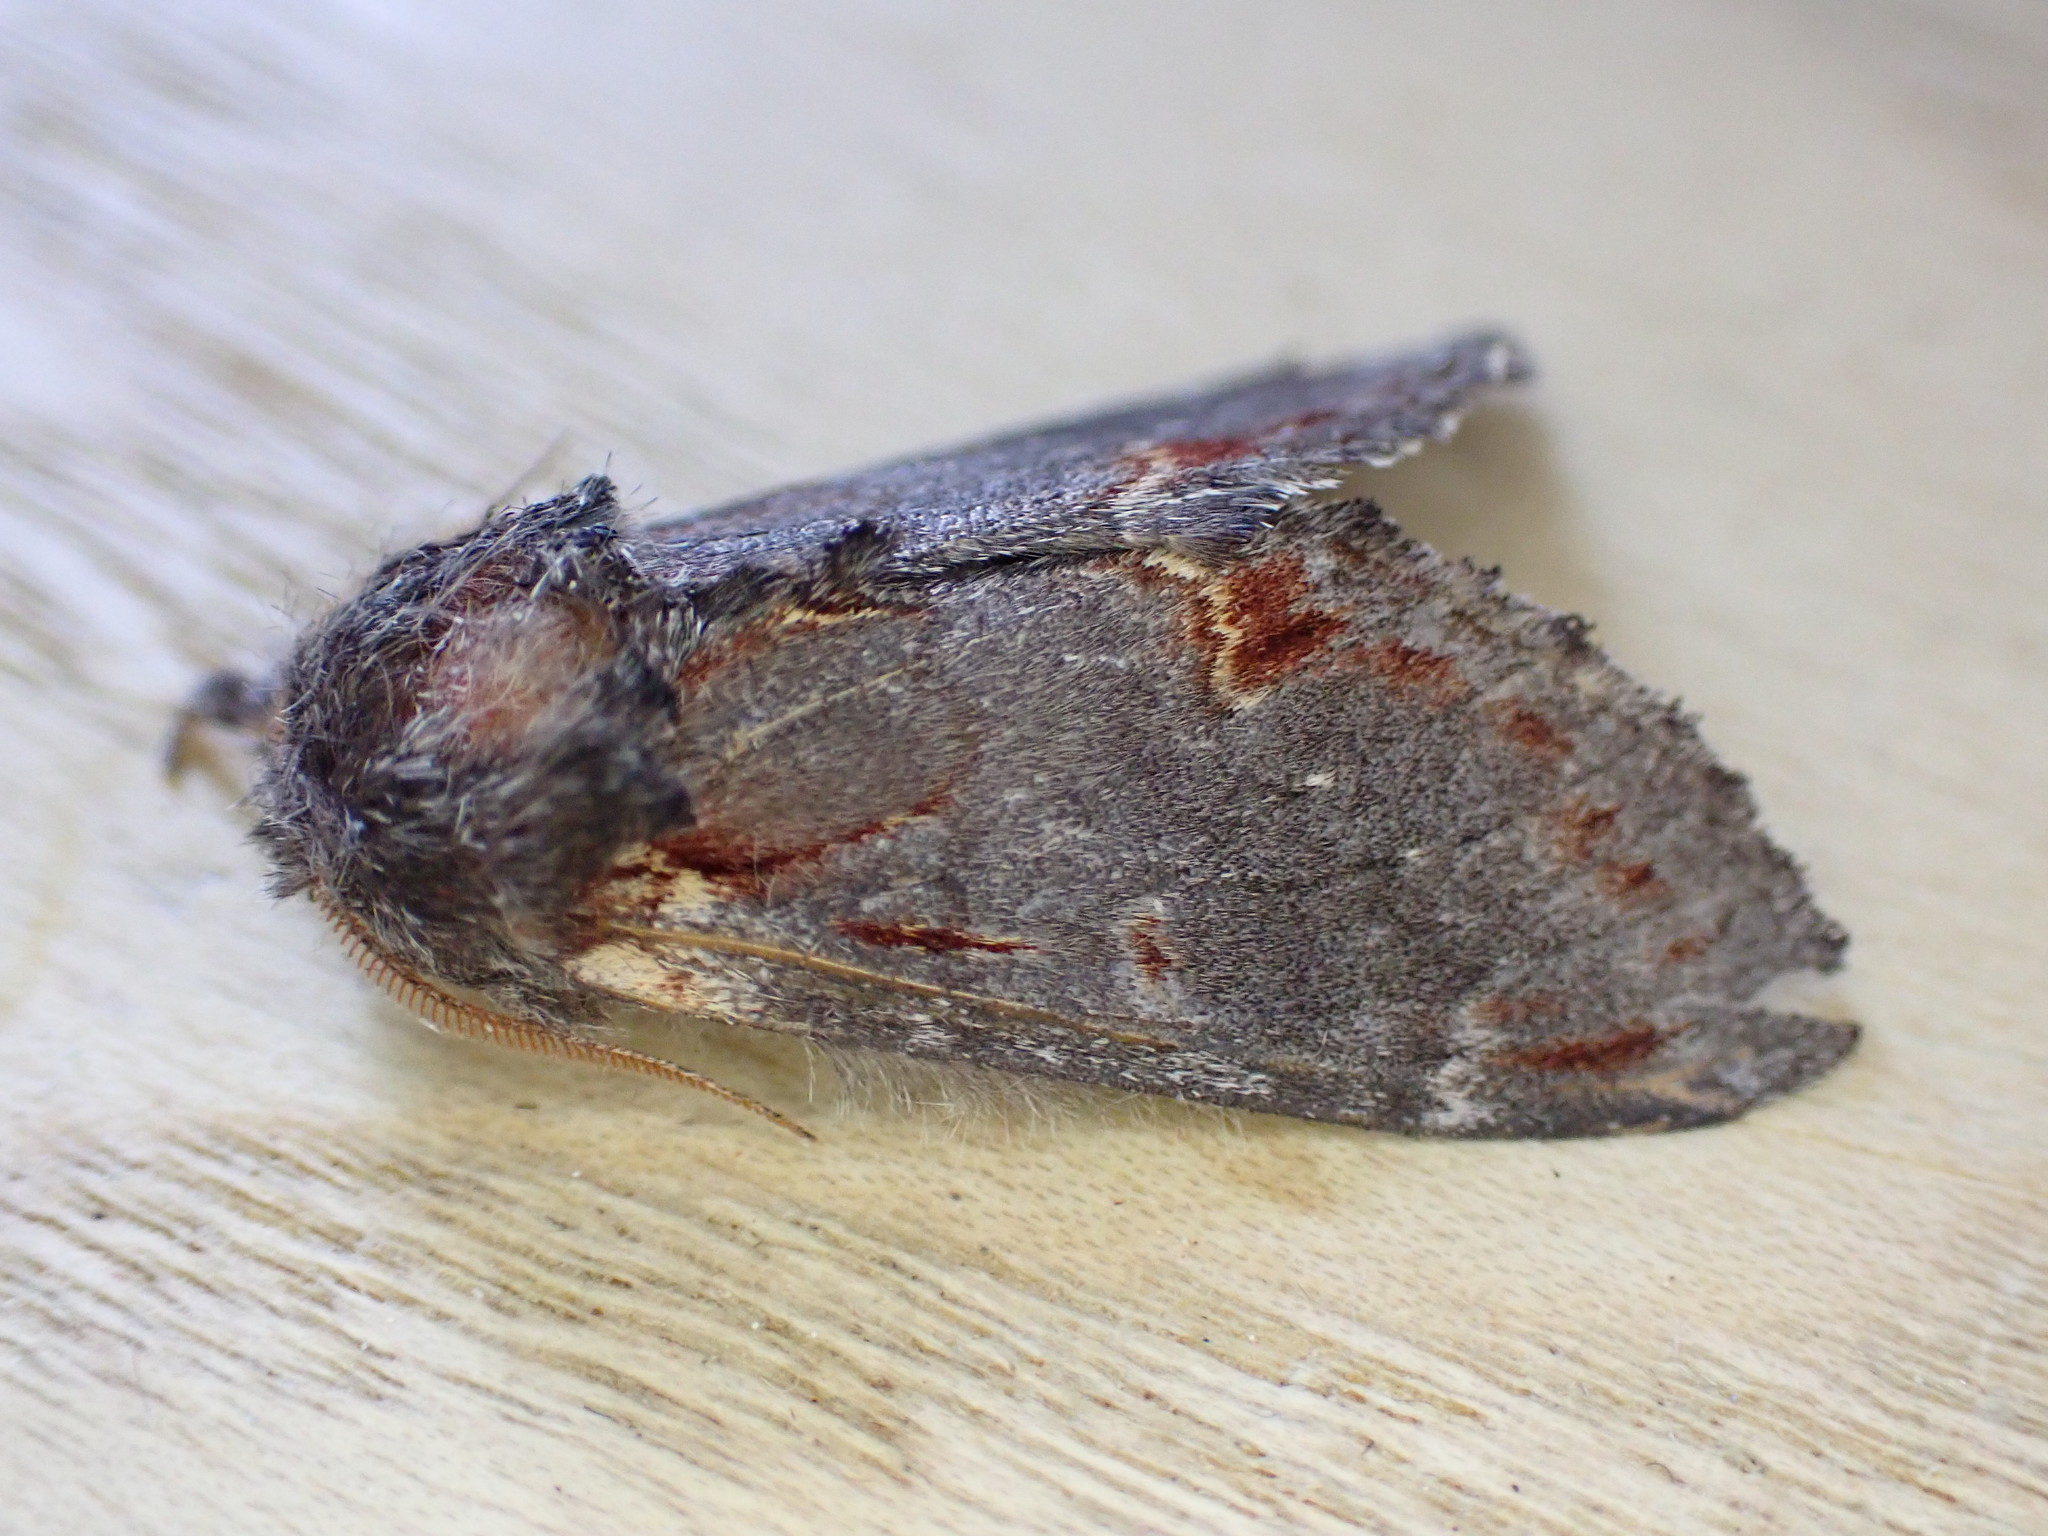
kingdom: Animalia
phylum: Arthropoda
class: Insecta
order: Lepidoptera
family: Notodontidae
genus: Notodonta
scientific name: Notodonta dromedarius
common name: Iron prominent
